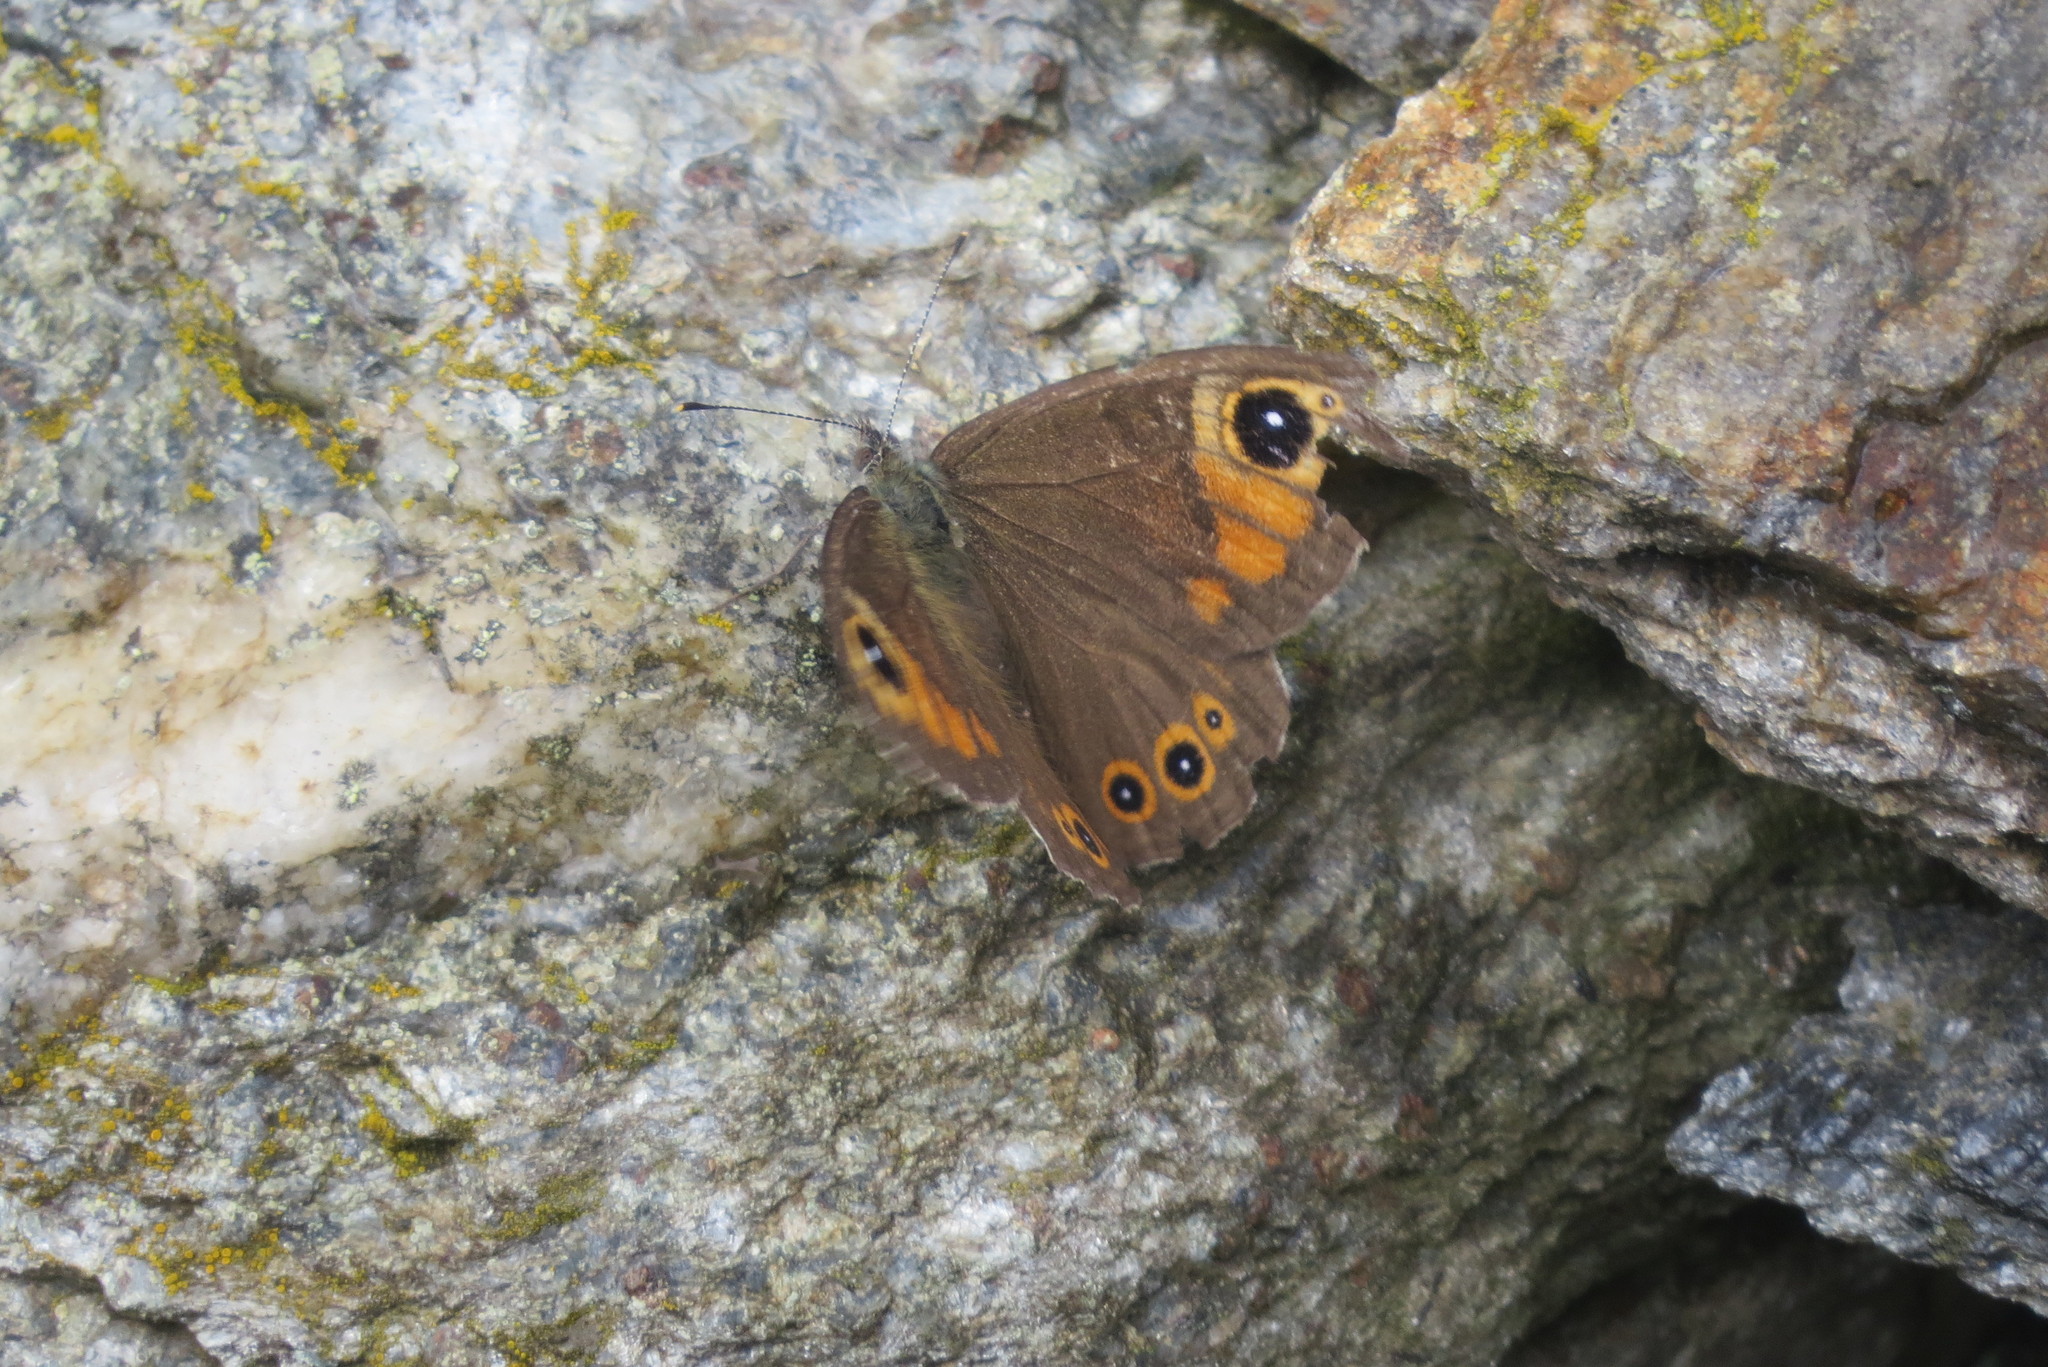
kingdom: Animalia
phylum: Arthropoda
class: Insecta
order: Lepidoptera
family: Nymphalidae
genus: Pararge
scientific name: Pararge Lasiommata maera
